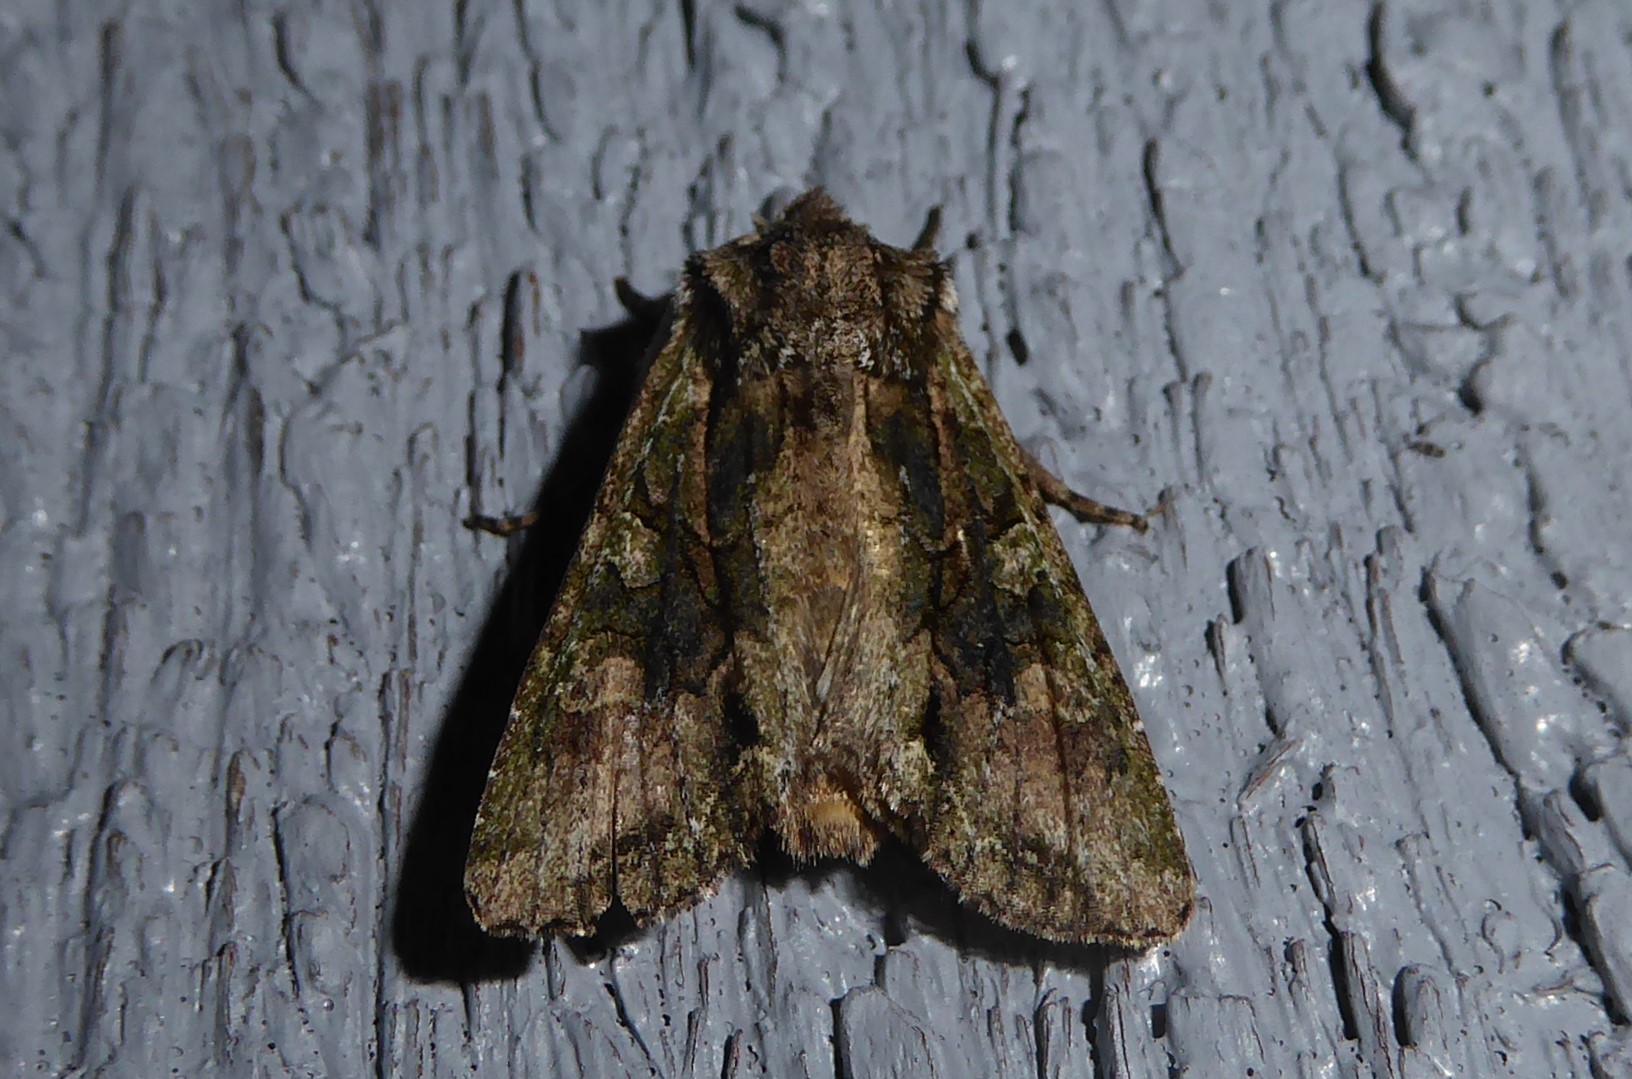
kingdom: Animalia
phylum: Arthropoda
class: Insecta
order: Lepidoptera
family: Noctuidae
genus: Ichneutica
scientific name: Ichneutica mutans
